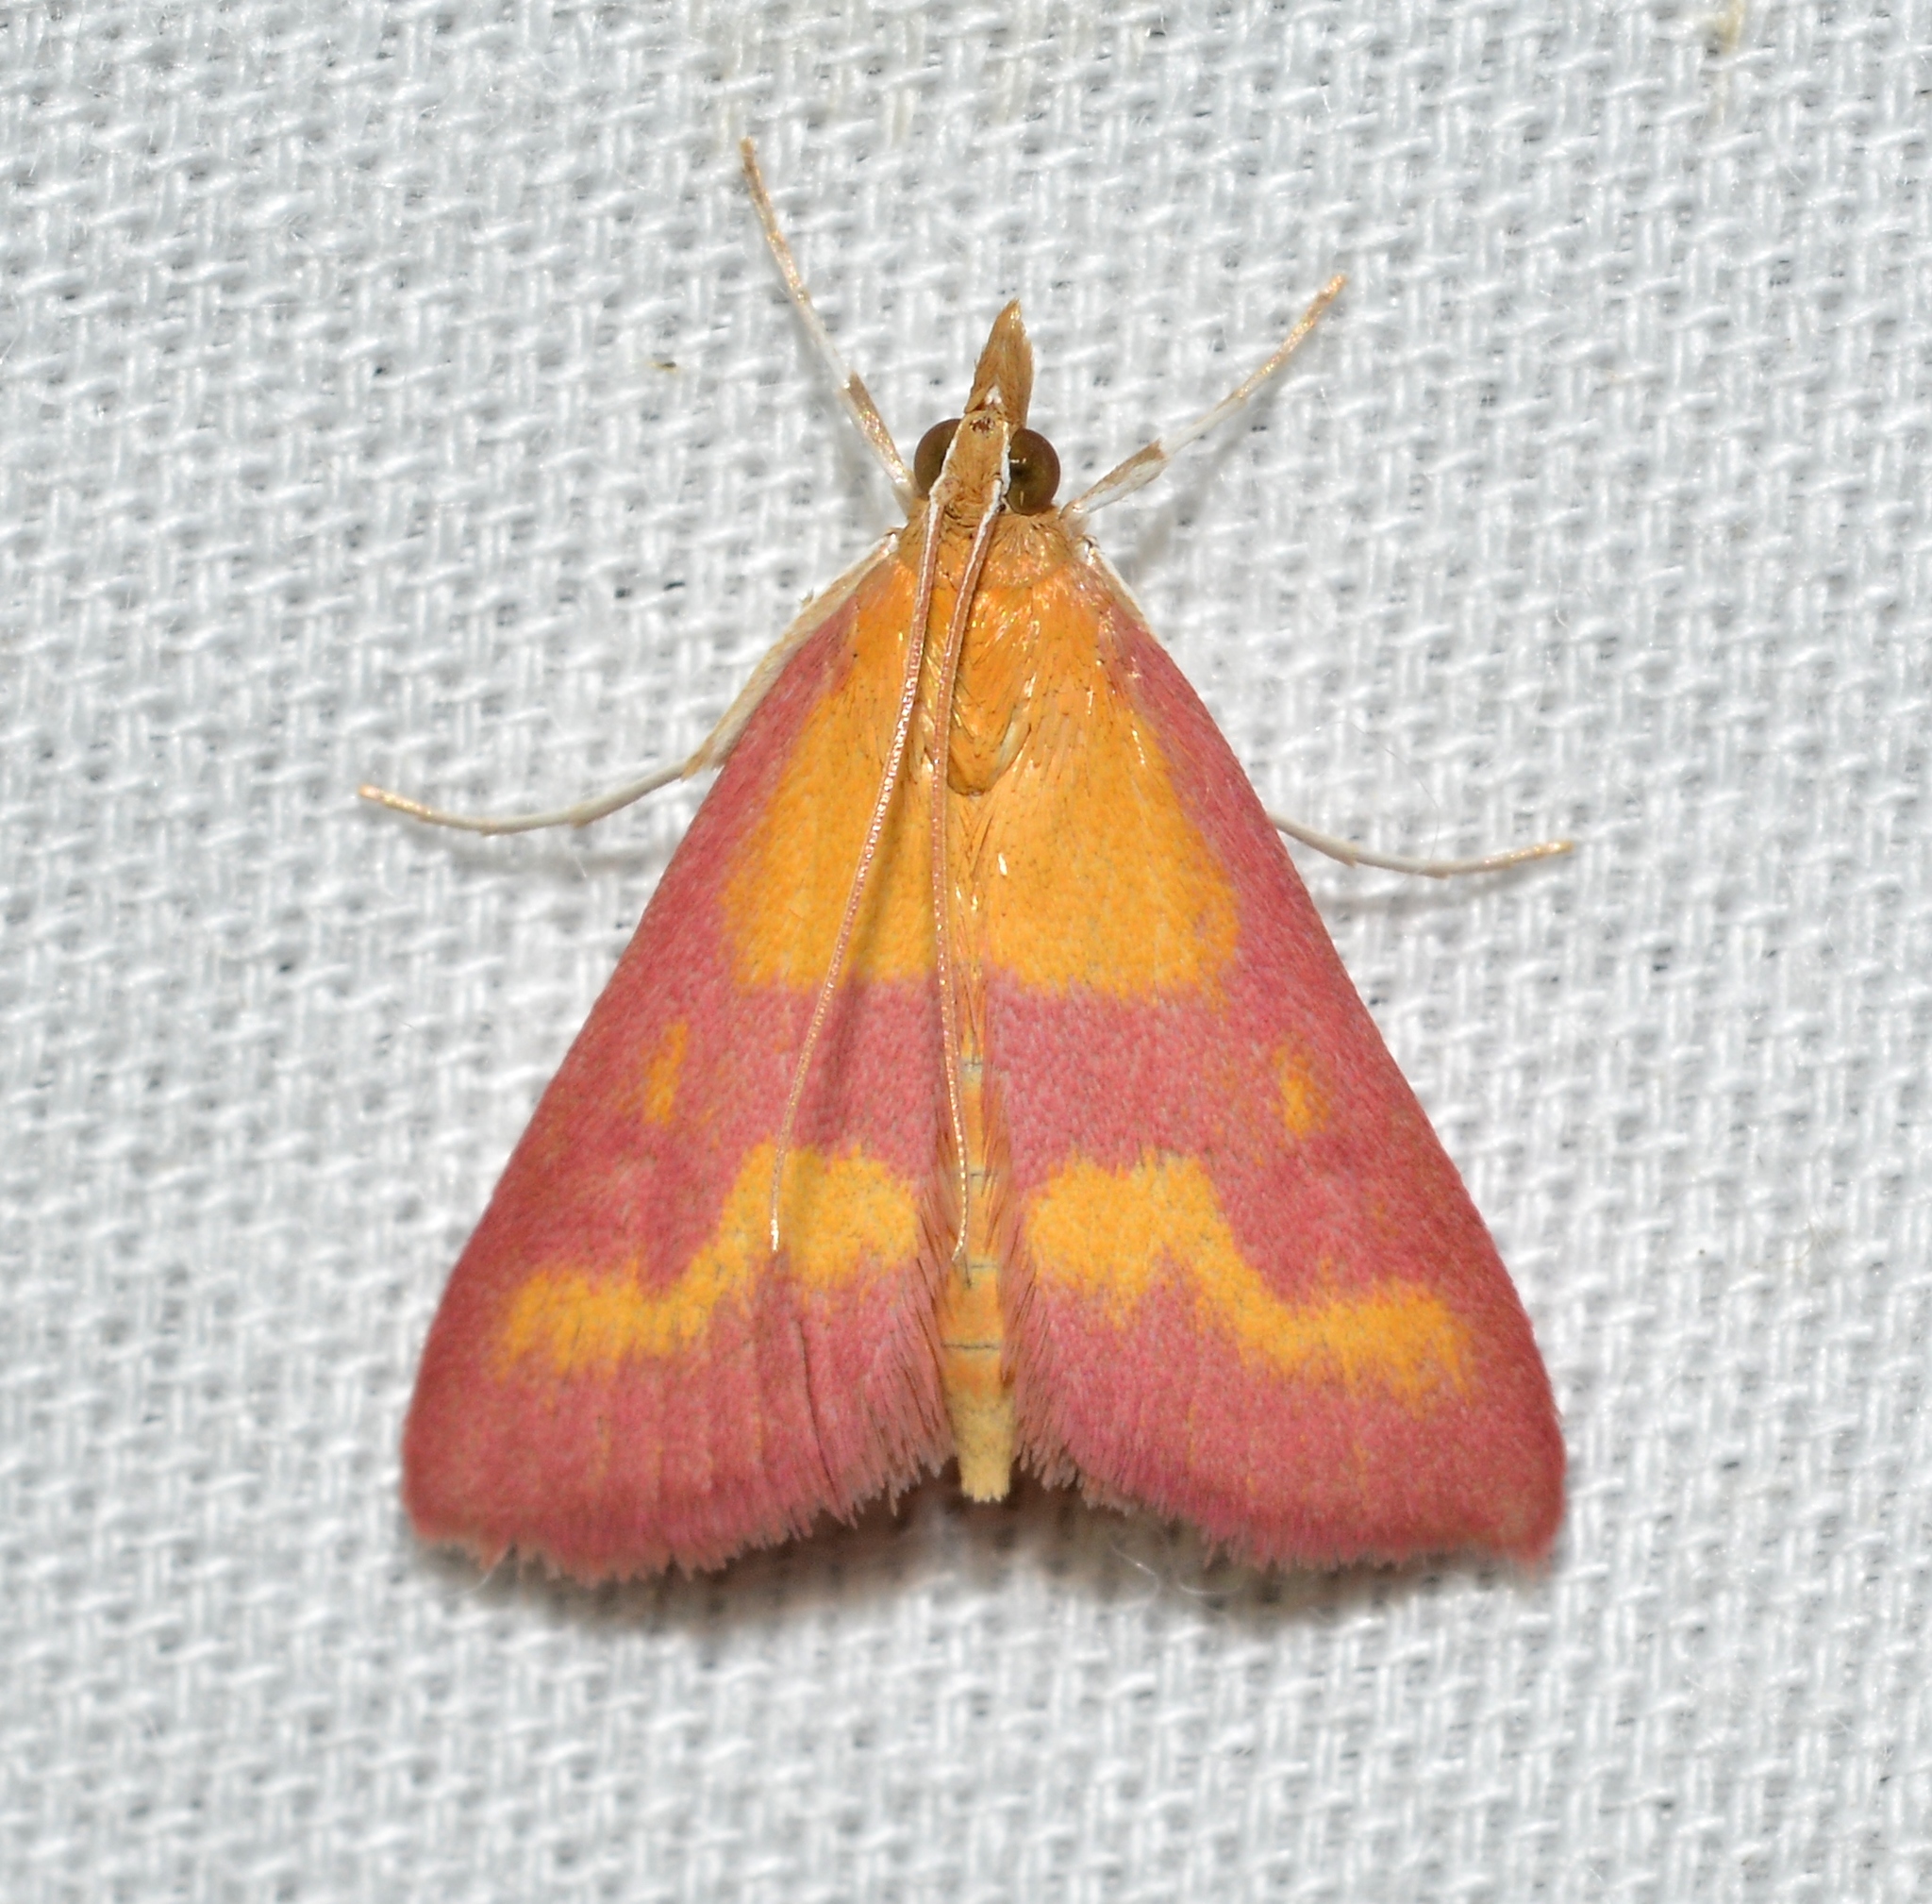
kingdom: Animalia
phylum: Arthropoda
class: Insecta
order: Lepidoptera
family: Crambidae
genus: Pyrausta
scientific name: Pyrausta laticlavia
